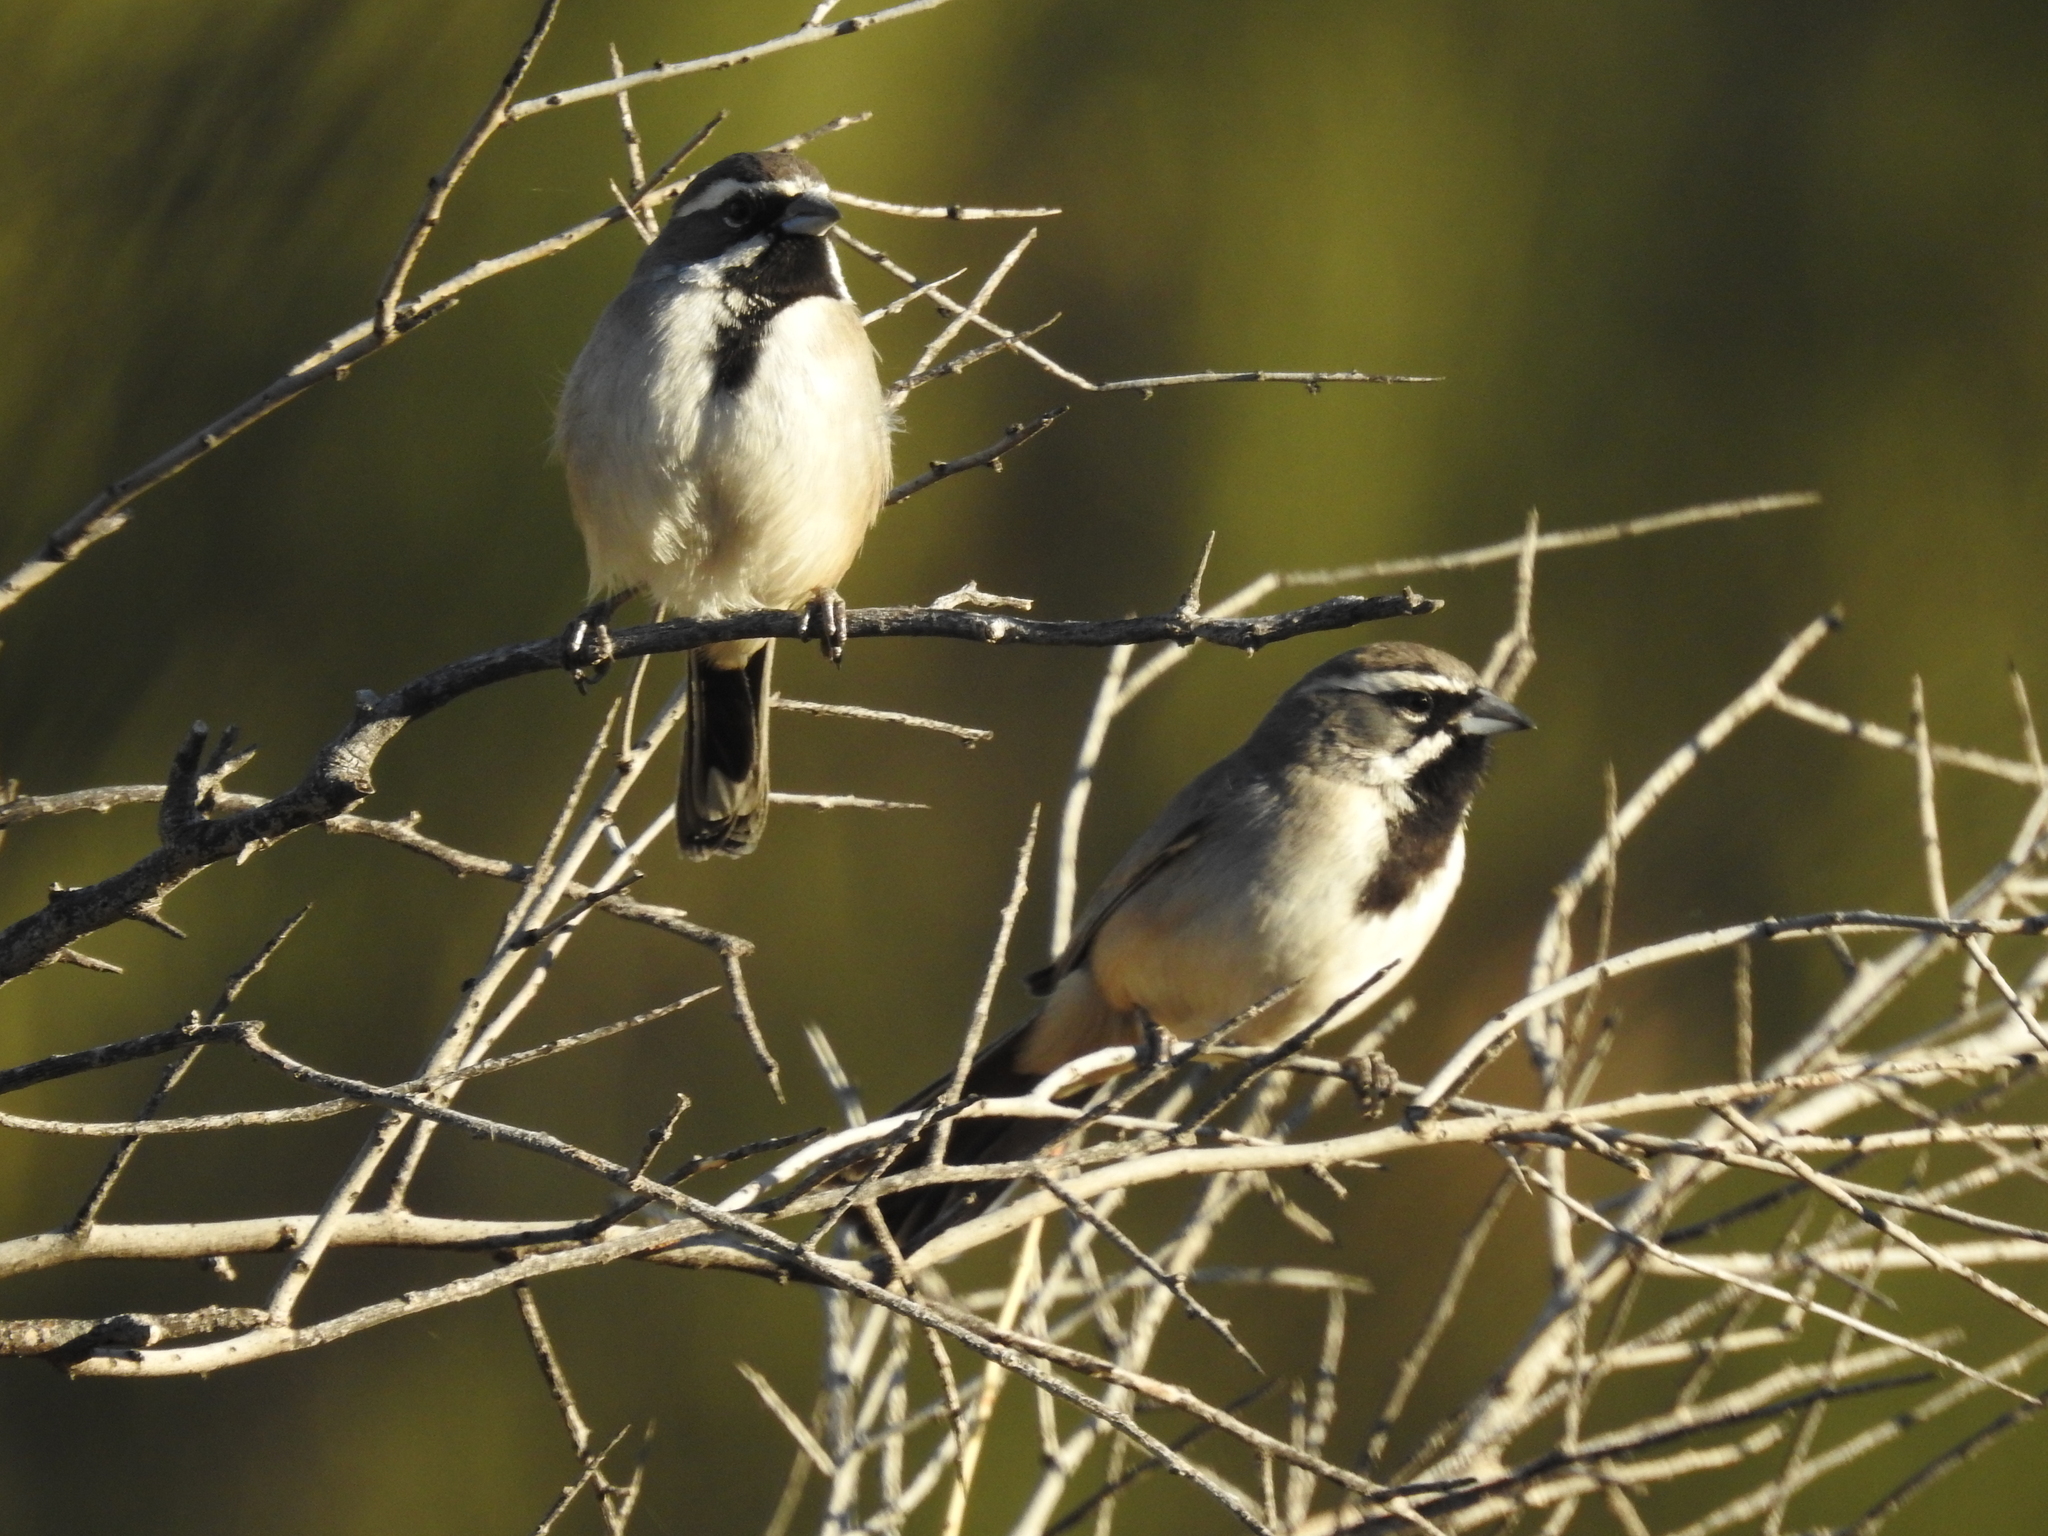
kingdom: Animalia
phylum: Chordata
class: Aves
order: Passeriformes
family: Passerellidae
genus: Amphispiza
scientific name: Amphispiza bilineata
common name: Black-throated sparrow
